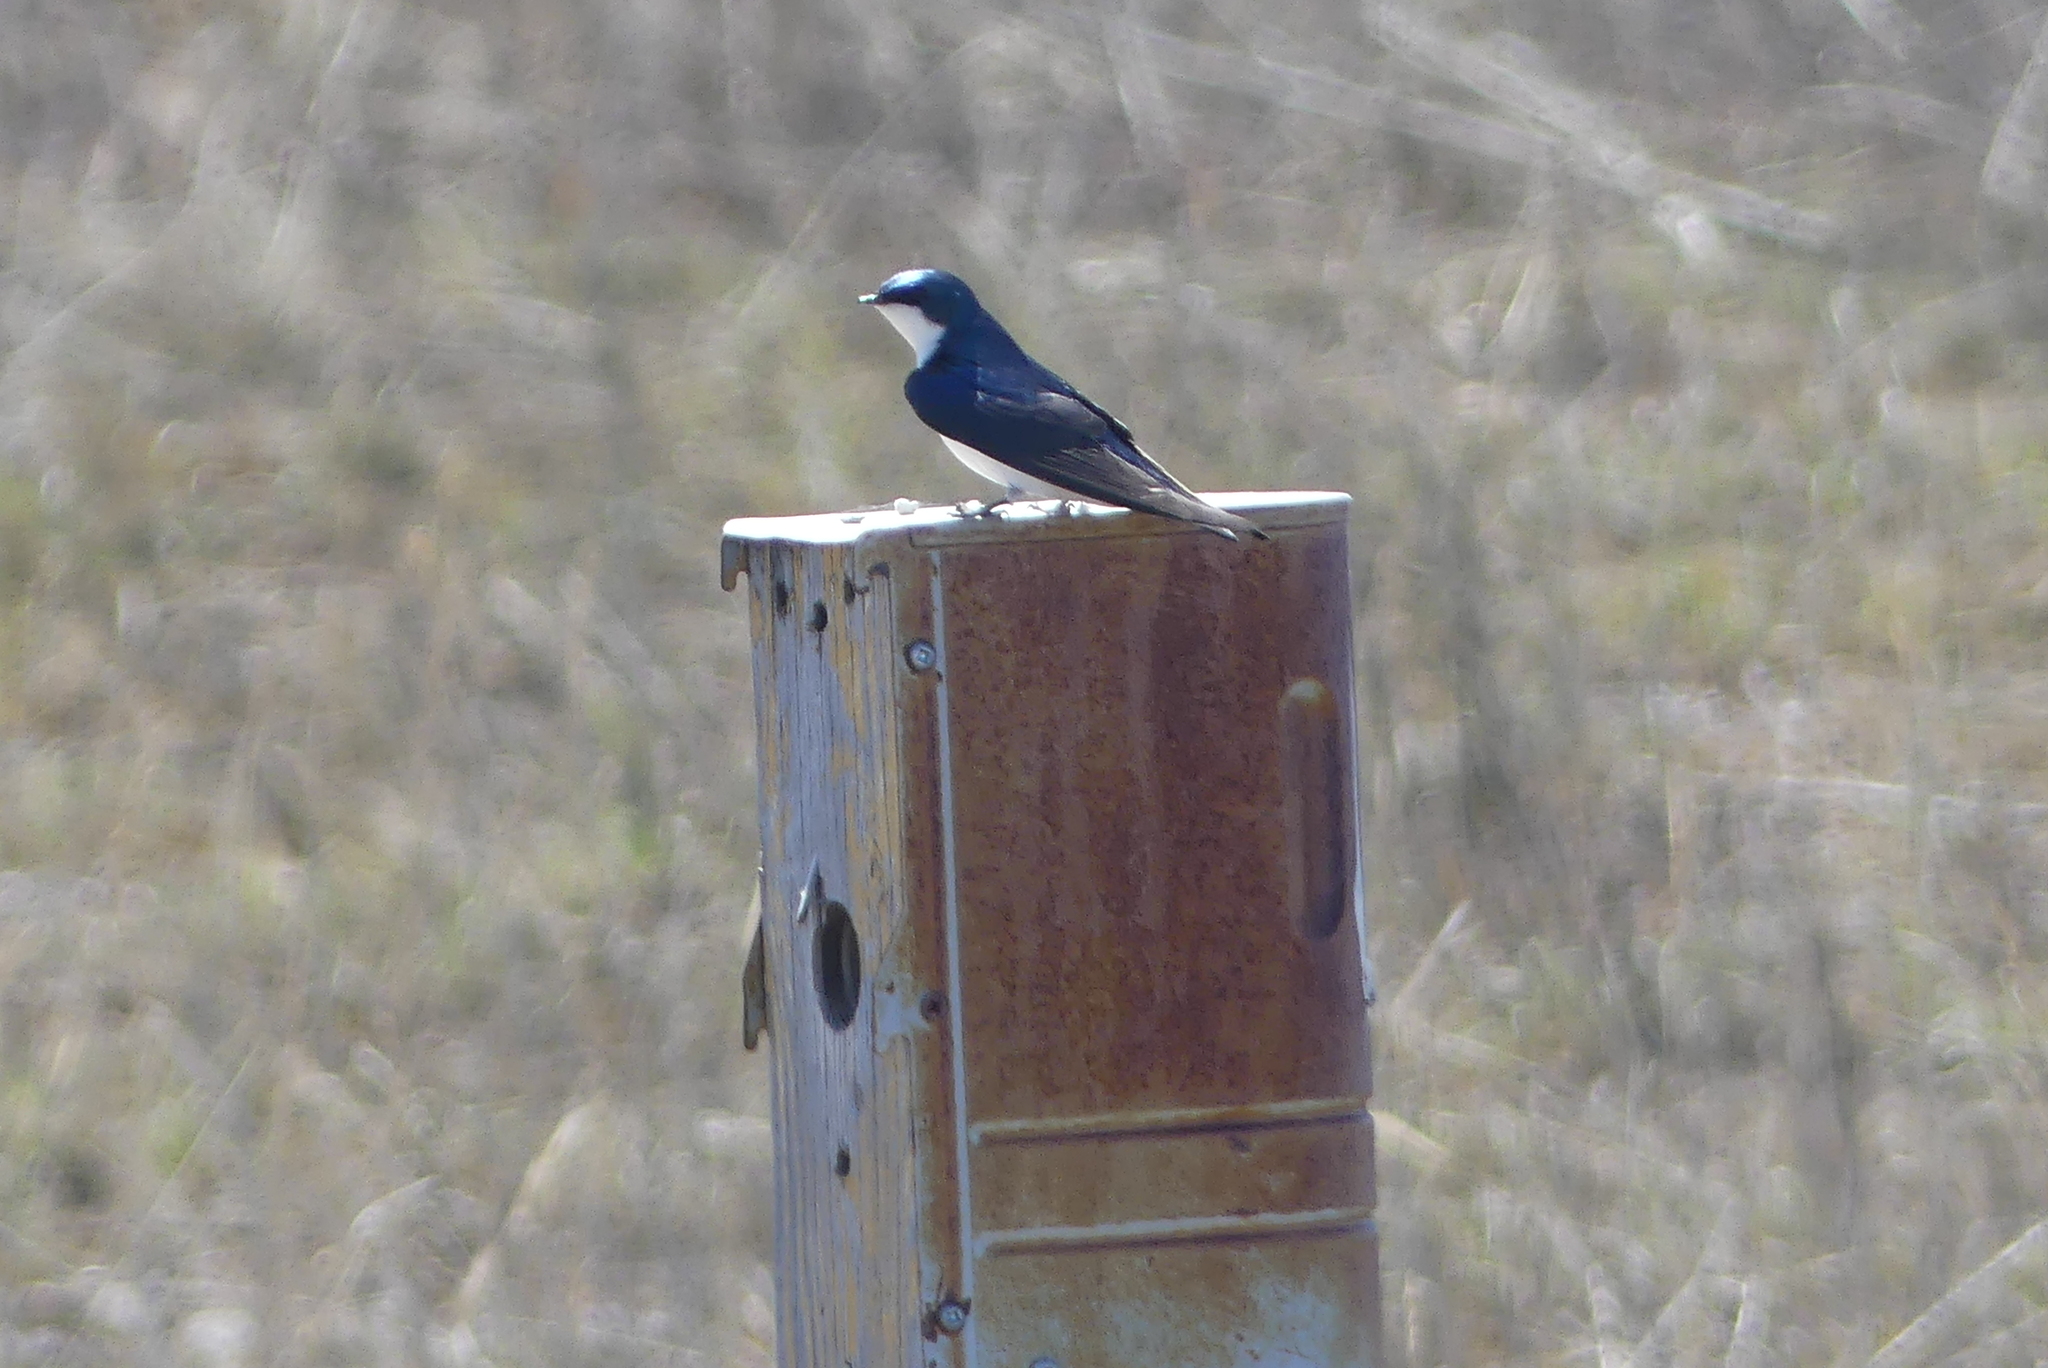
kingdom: Animalia
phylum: Chordata
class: Aves
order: Passeriformes
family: Hirundinidae
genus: Tachycineta
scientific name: Tachycineta bicolor
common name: Tree swallow
